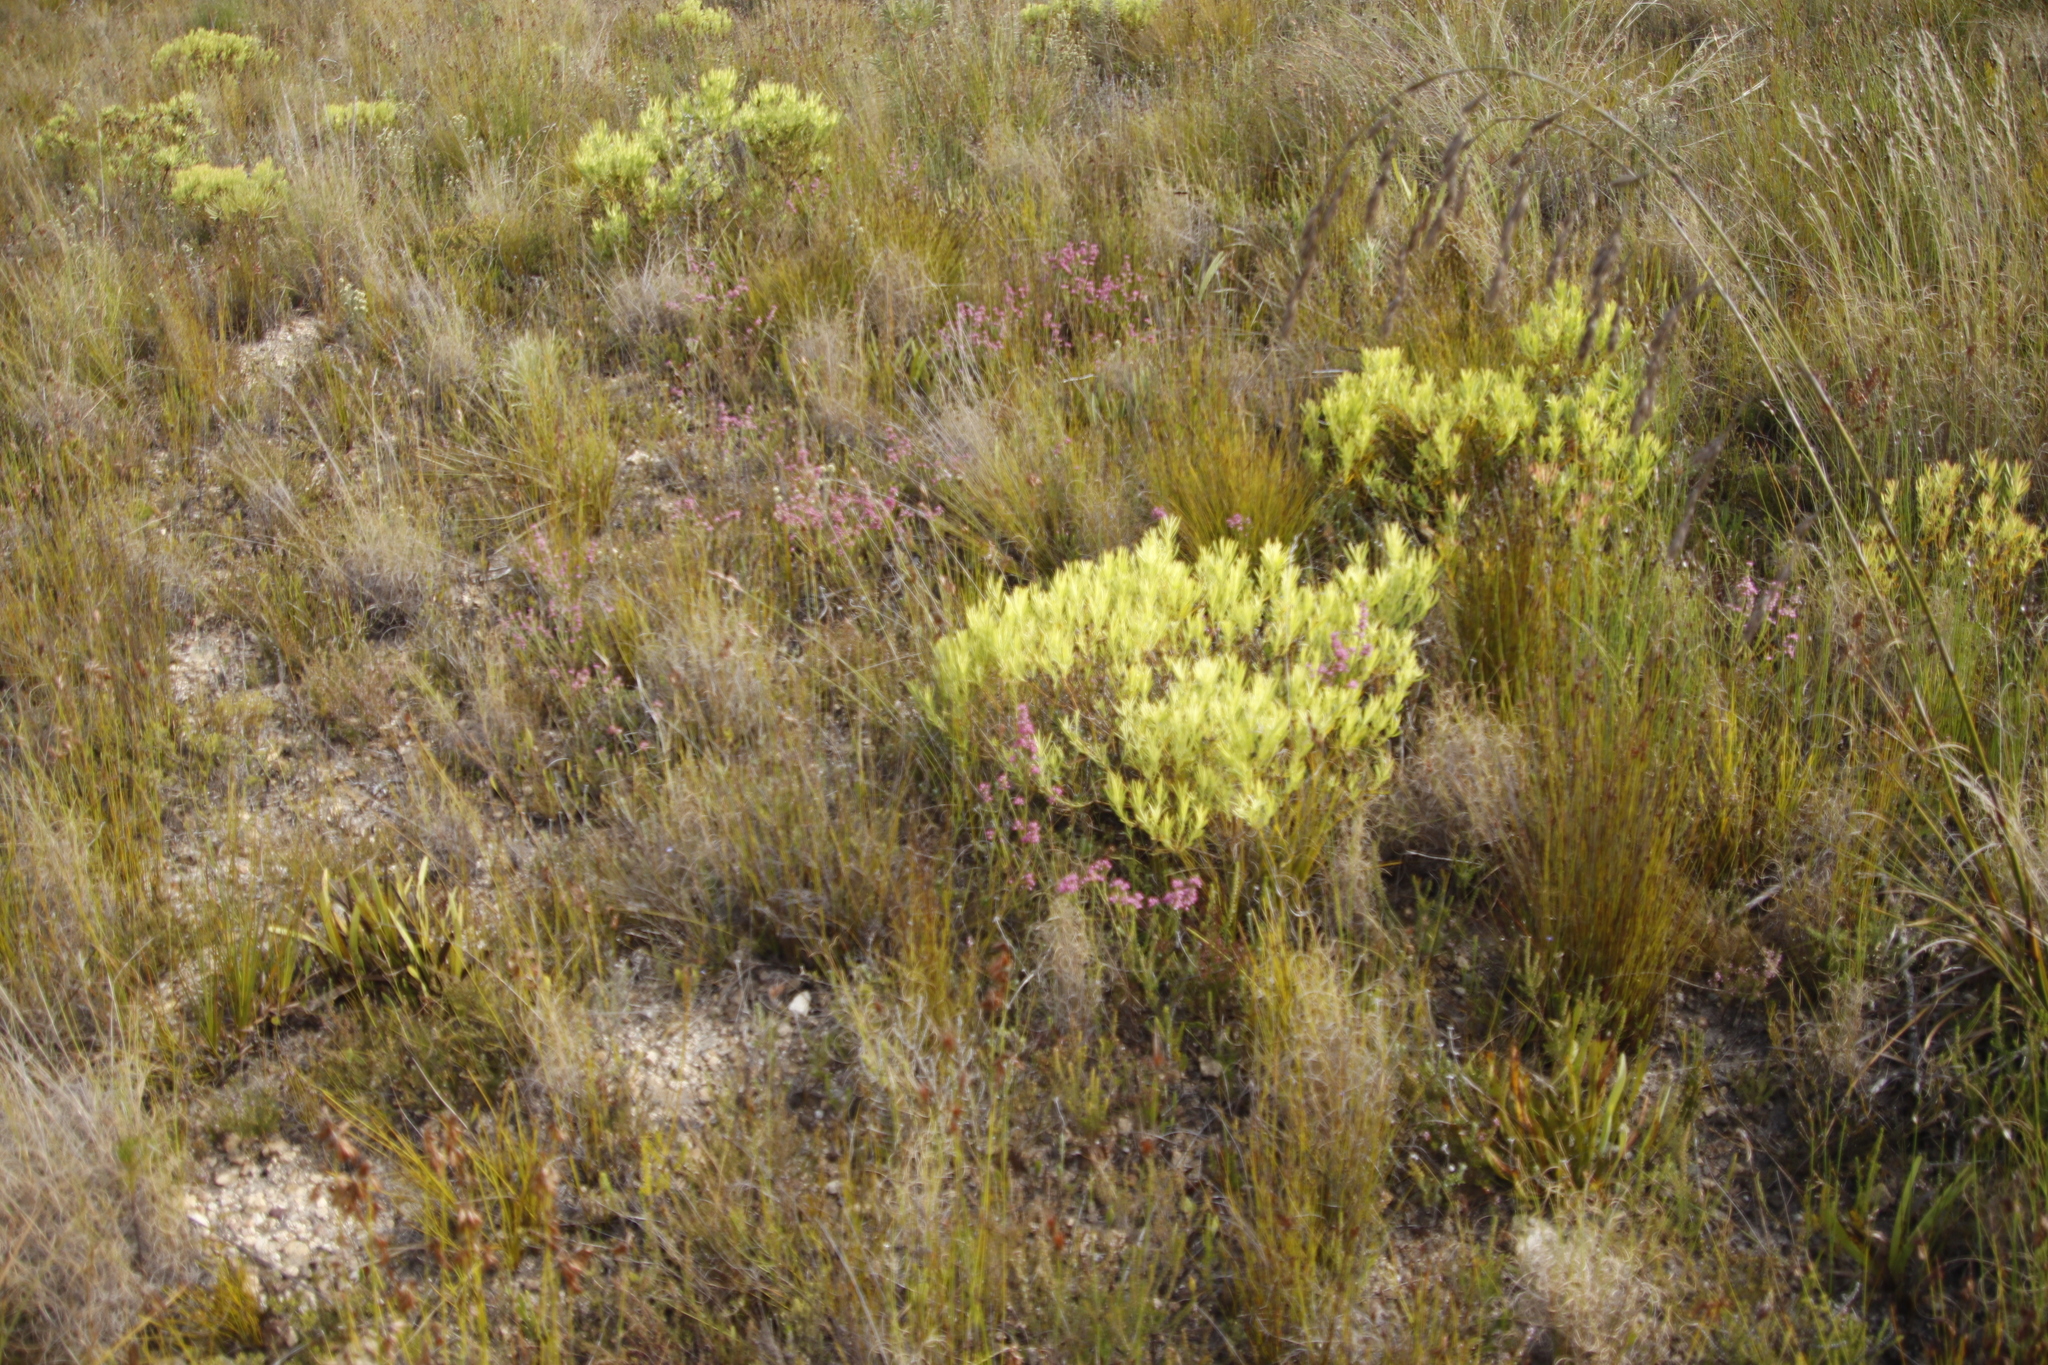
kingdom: Plantae
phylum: Tracheophyta
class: Magnoliopsida
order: Proteales
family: Proteaceae
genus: Leucadendron
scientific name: Leucadendron salignum
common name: Common sunshine conebush
